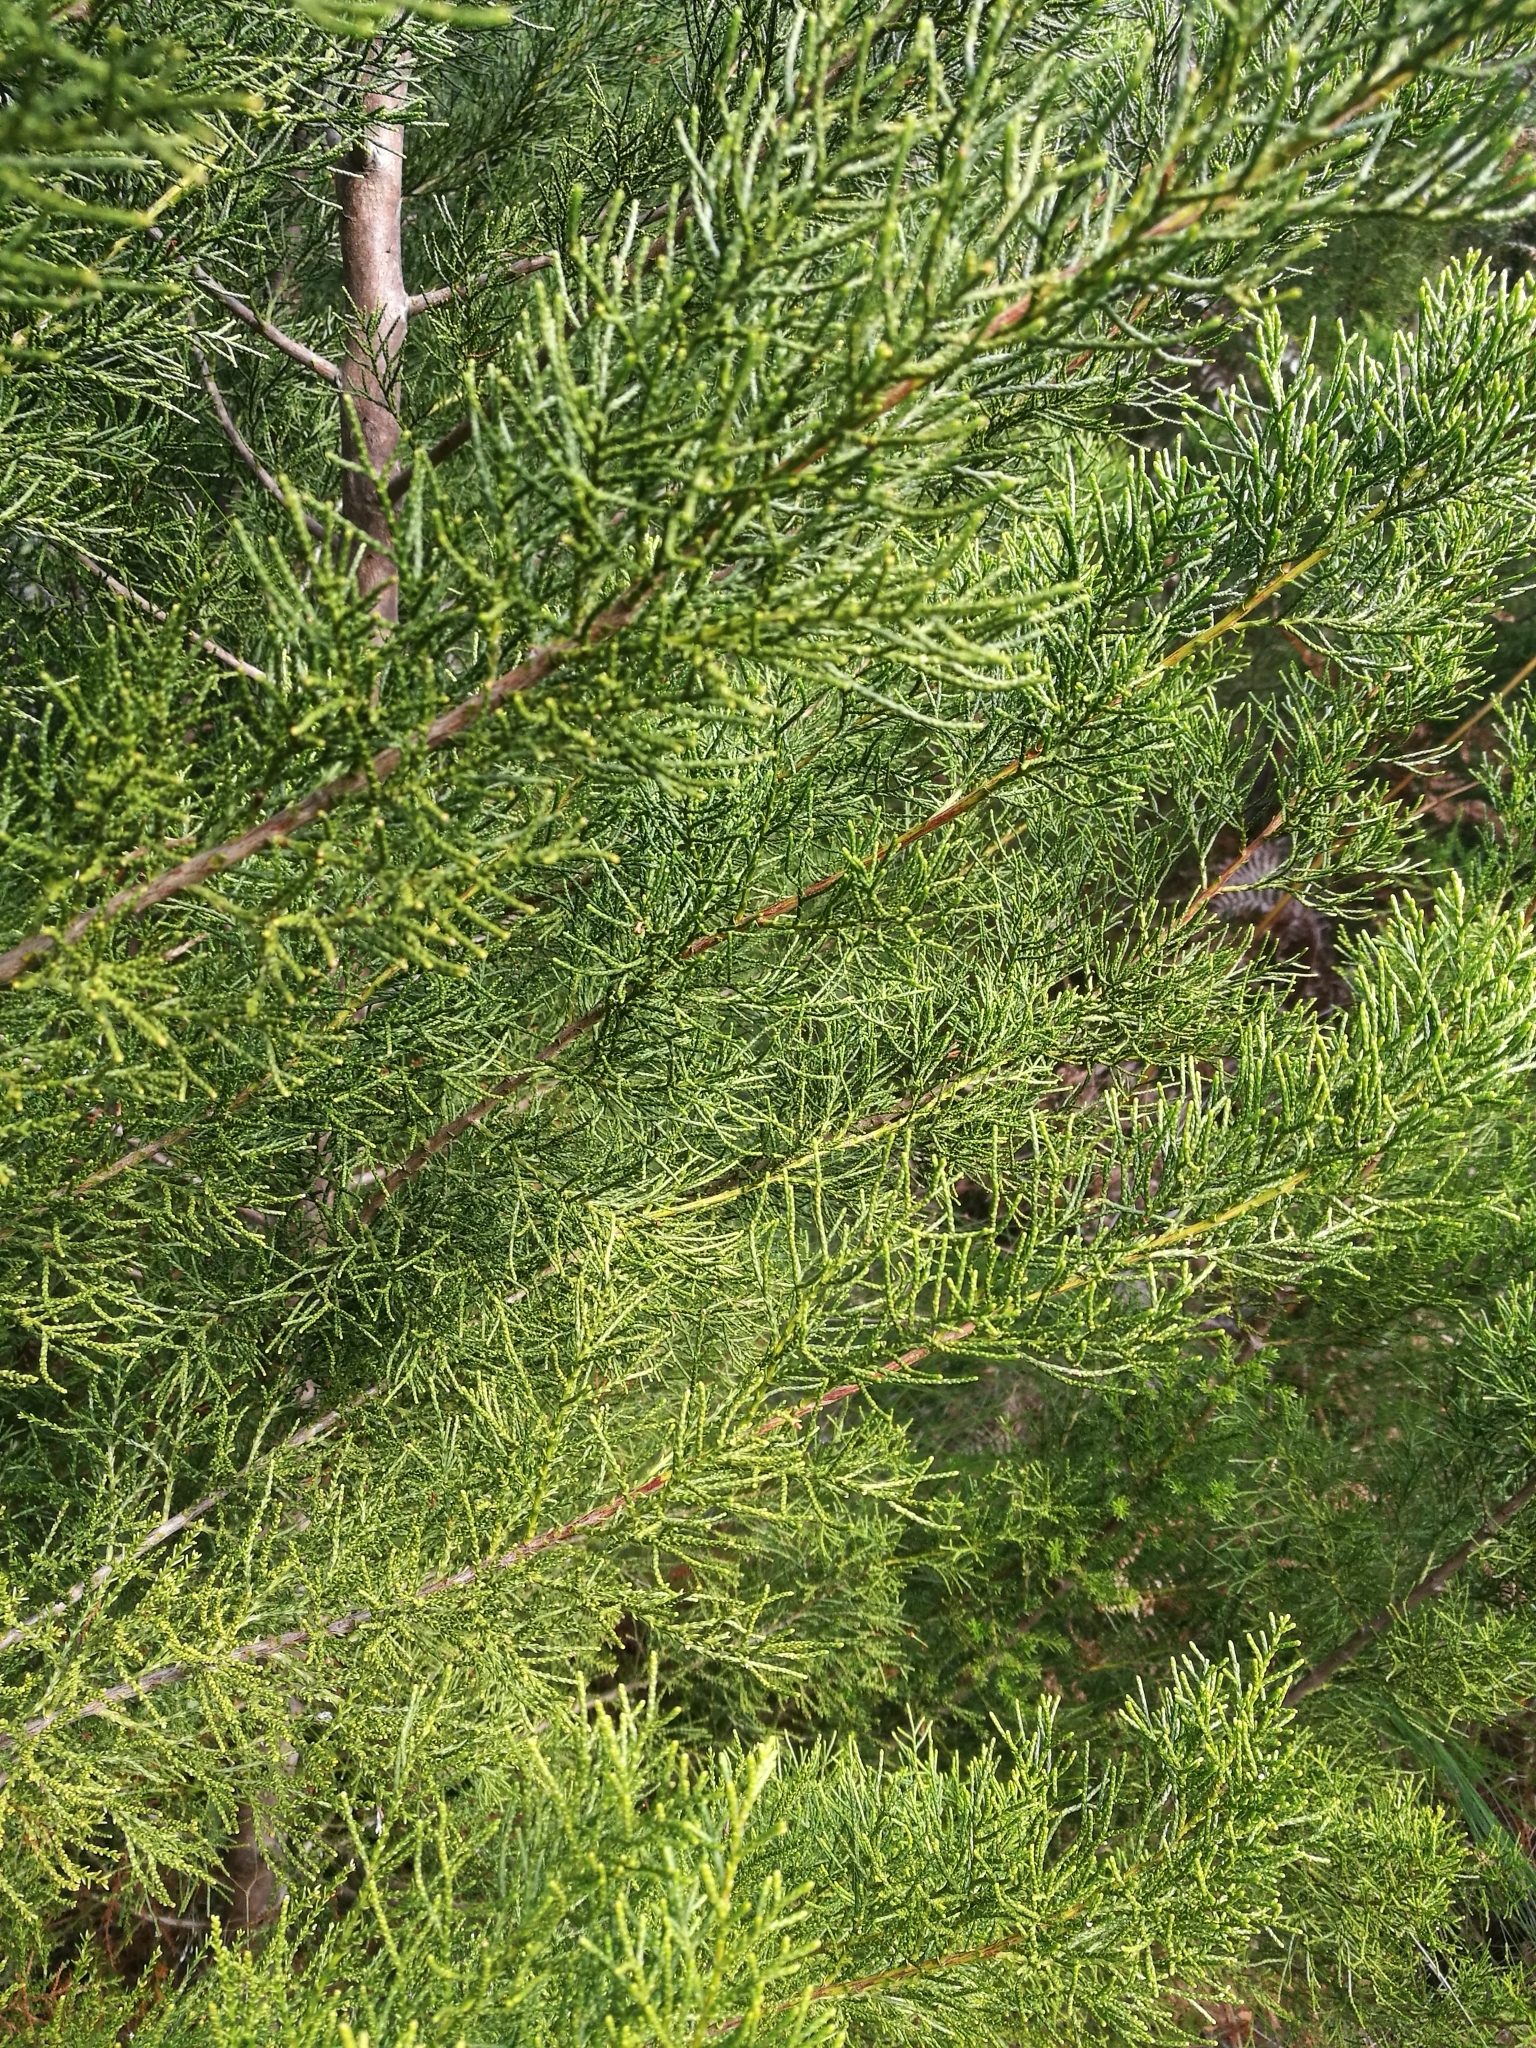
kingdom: Plantae
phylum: Tracheophyta
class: Pinopsida
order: Pinales
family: Cupressaceae
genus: Widdringtonia
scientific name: Widdringtonia nodiflora
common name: Cape cypress
